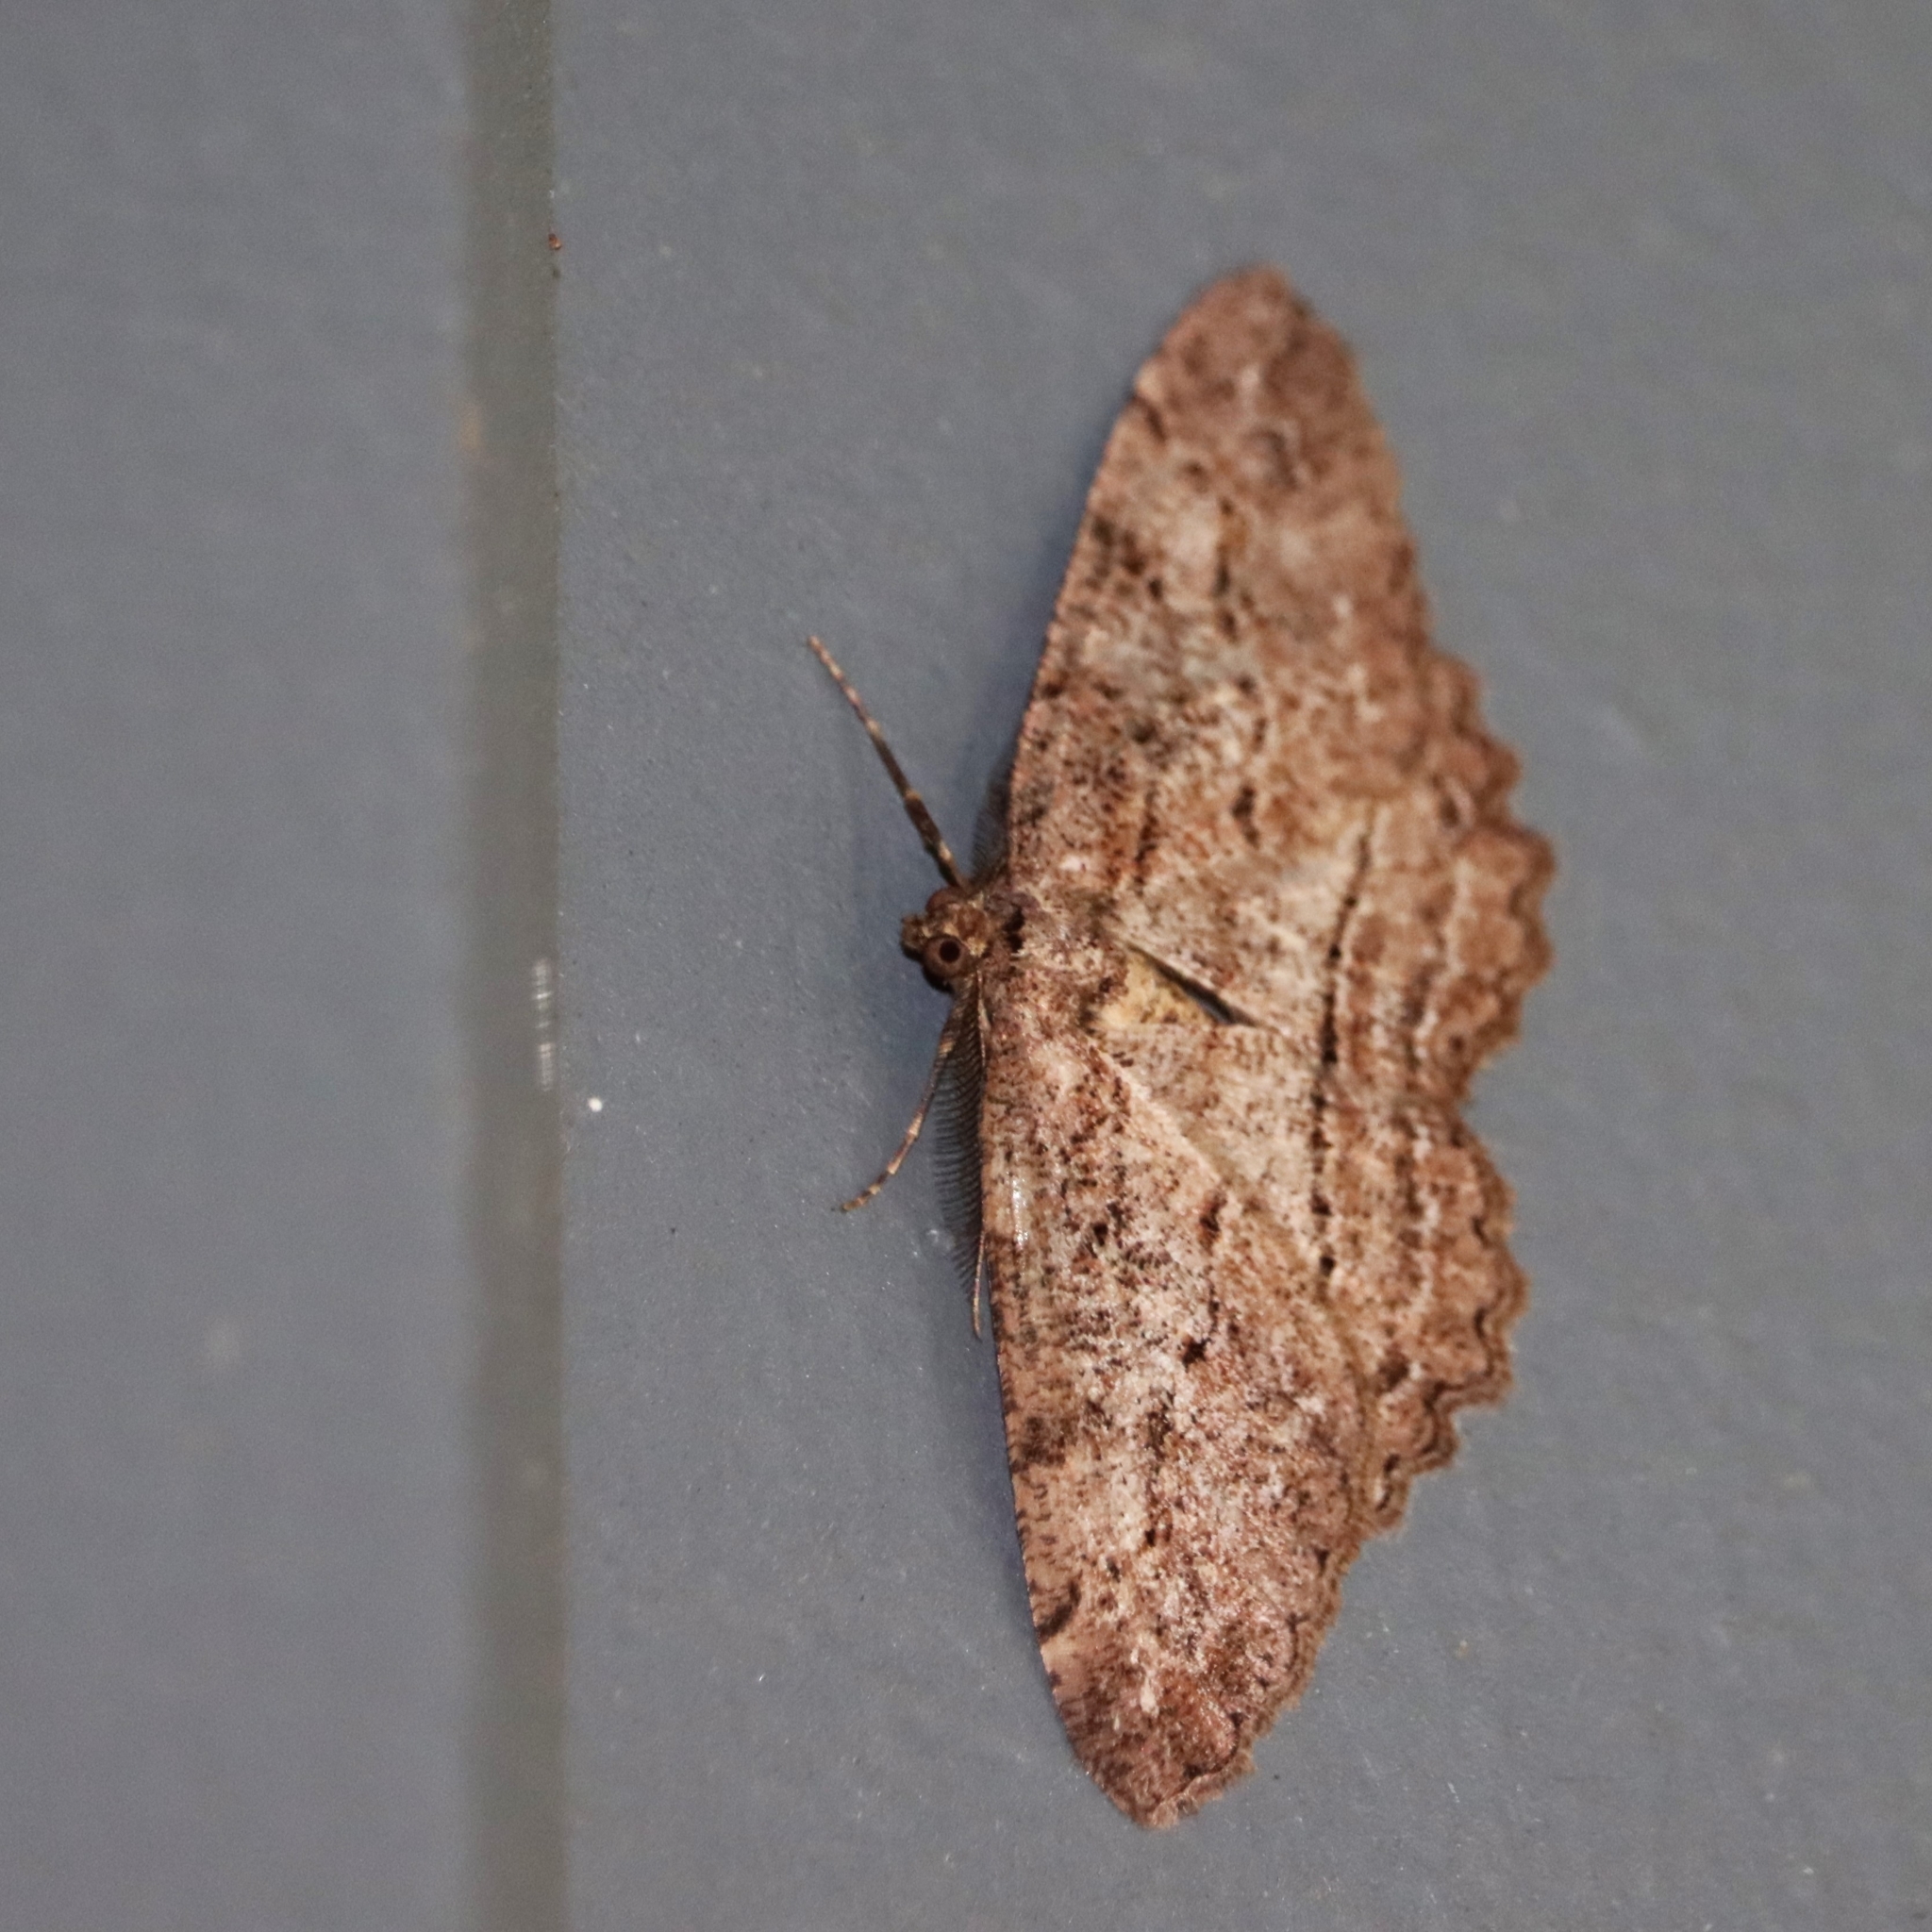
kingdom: Animalia
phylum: Arthropoda
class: Insecta
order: Lepidoptera
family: Geometridae
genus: Neoalcis
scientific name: Neoalcis californiaria
